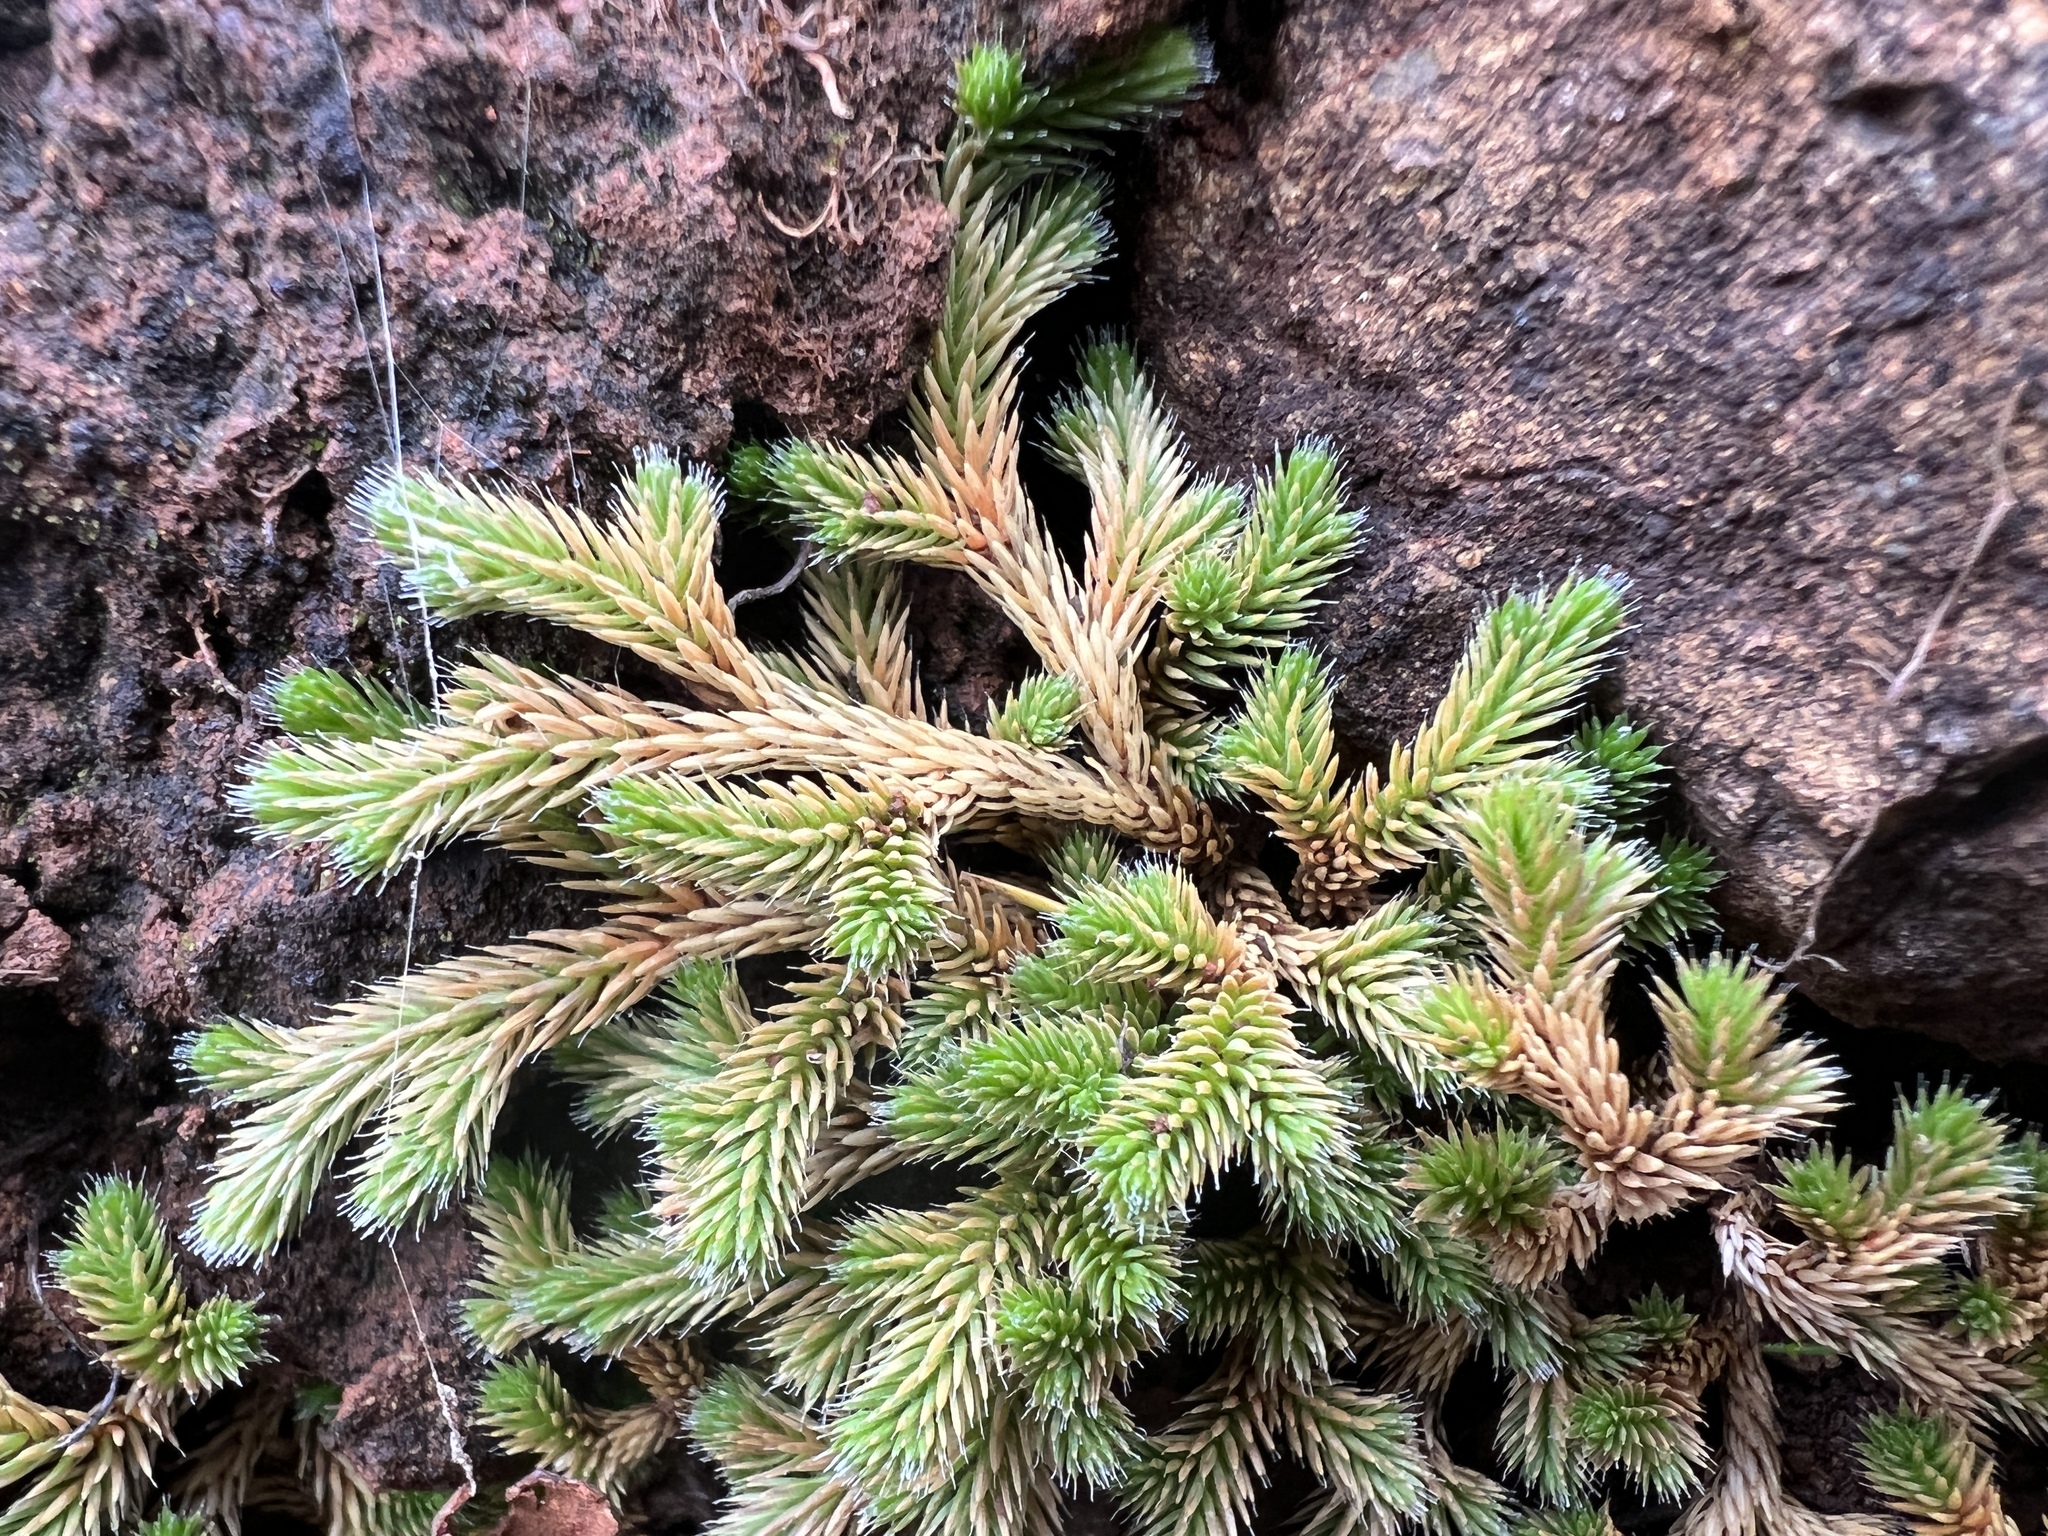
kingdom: Plantae
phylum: Tracheophyta
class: Lycopodiopsida
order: Selaginellales
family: Selaginellaceae
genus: Selaginella
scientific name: Selaginella wallacei
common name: Wallace's selaginella
